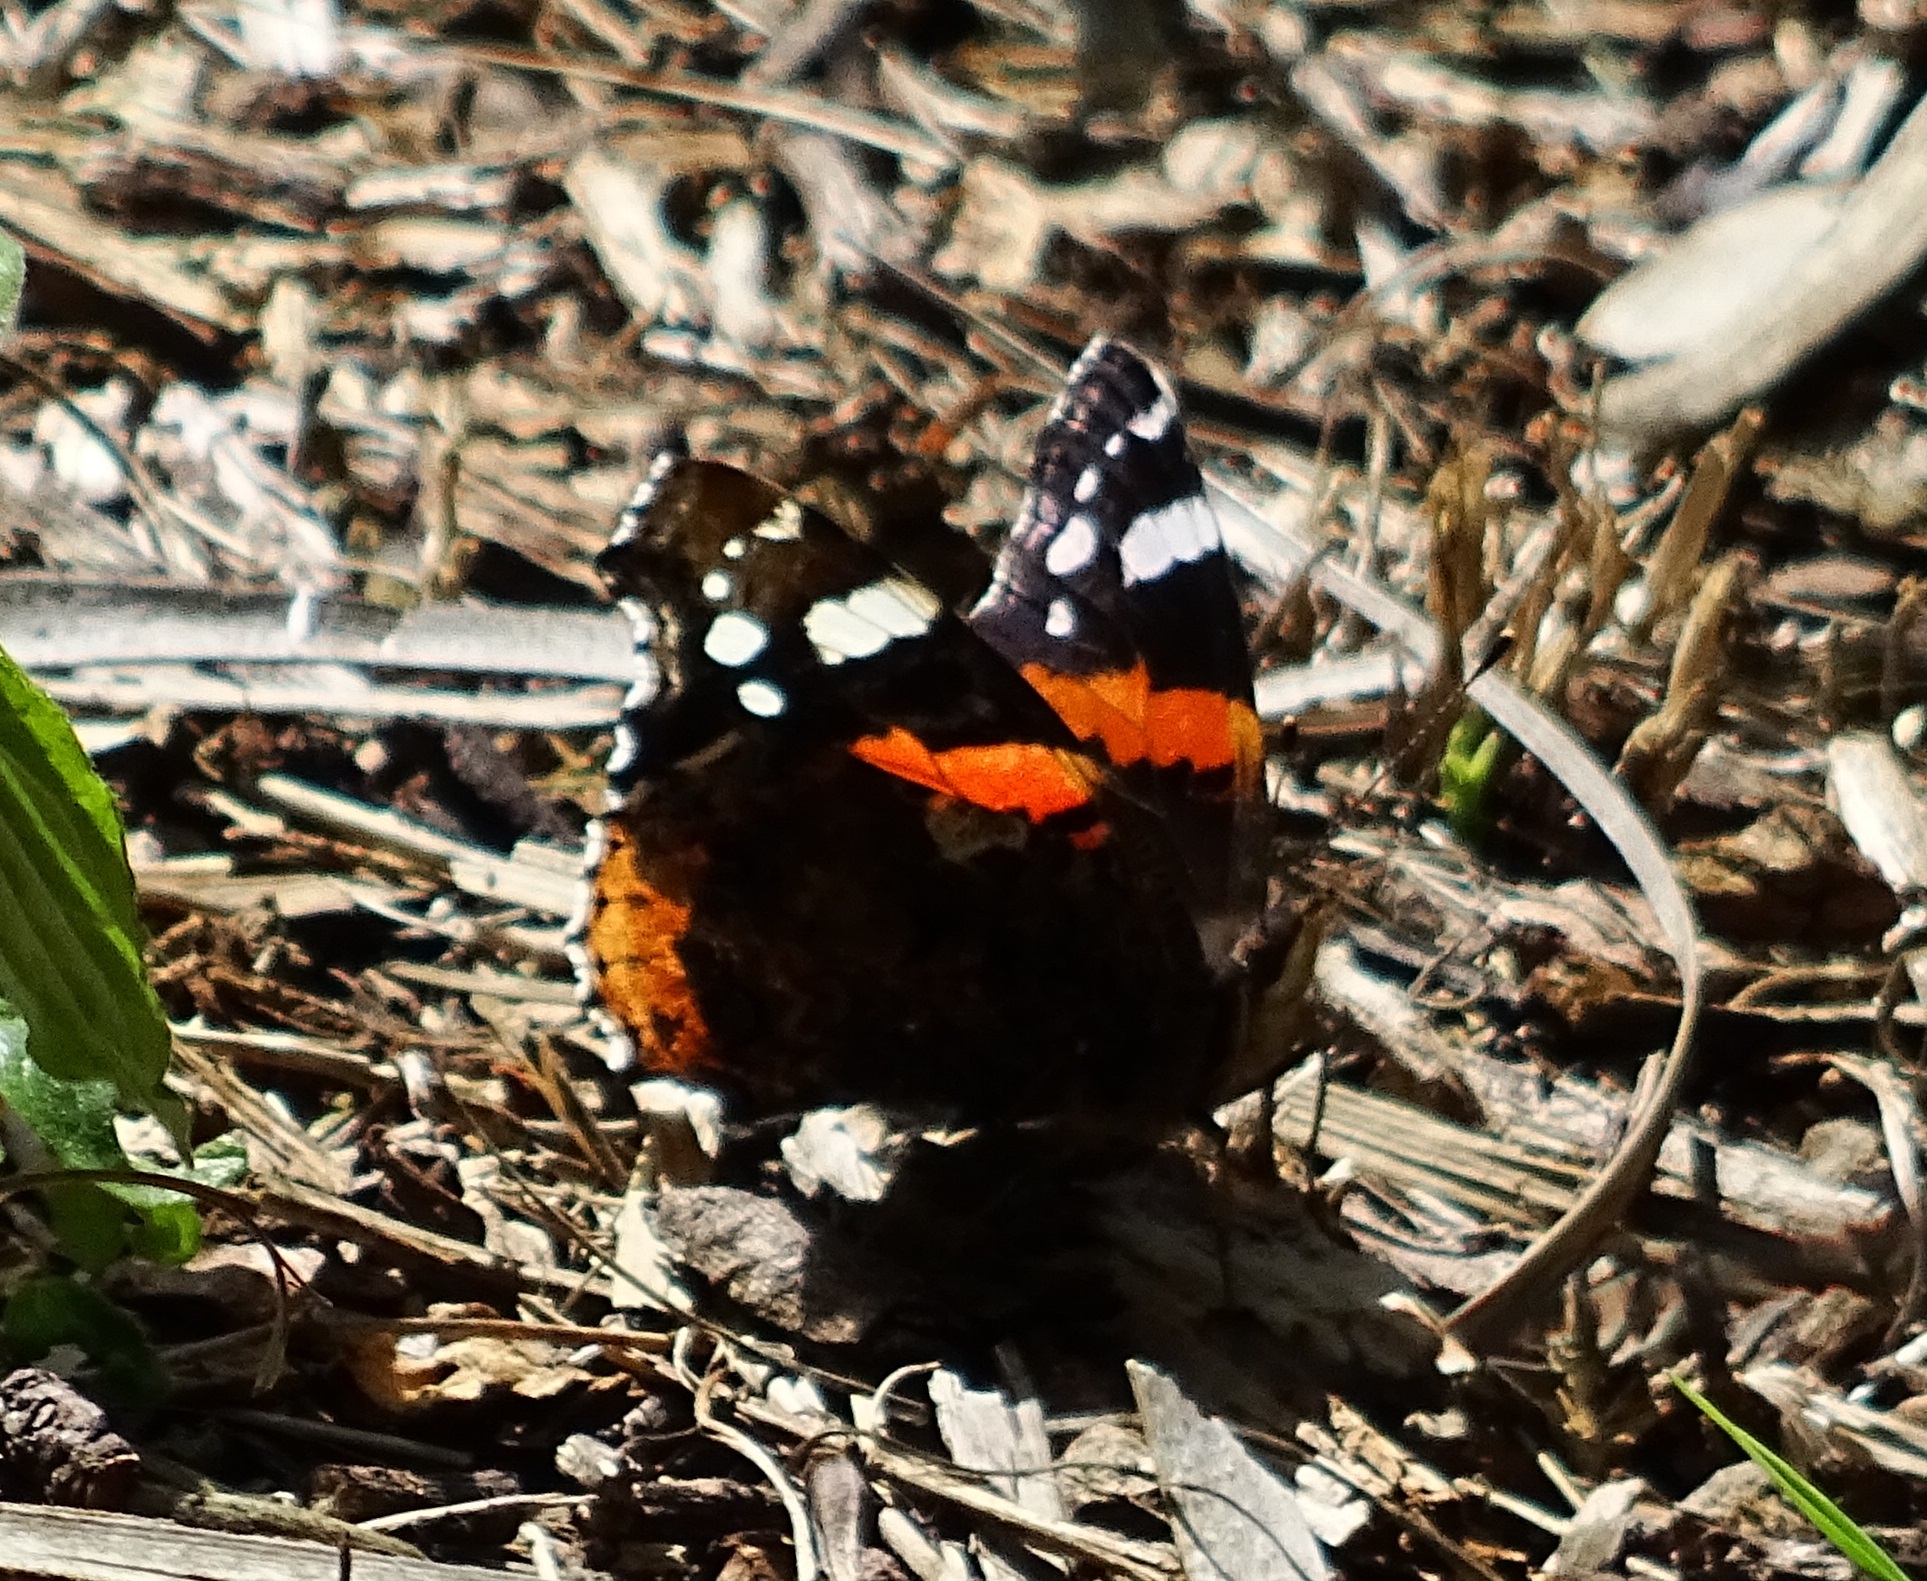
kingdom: Animalia
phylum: Arthropoda
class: Insecta
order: Lepidoptera
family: Nymphalidae
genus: Vanessa
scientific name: Vanessa atalanta
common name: Red admiral
